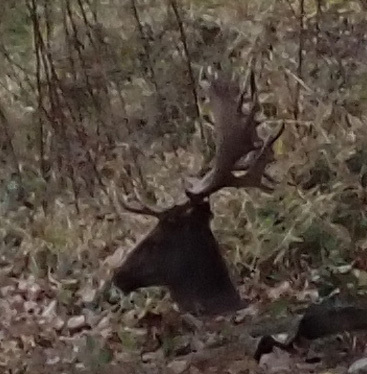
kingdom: Animalia
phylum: Chordata
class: Mammalia
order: Artiodactyla
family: Cervidae
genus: Dama
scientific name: Dama dama
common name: Fallow deer
